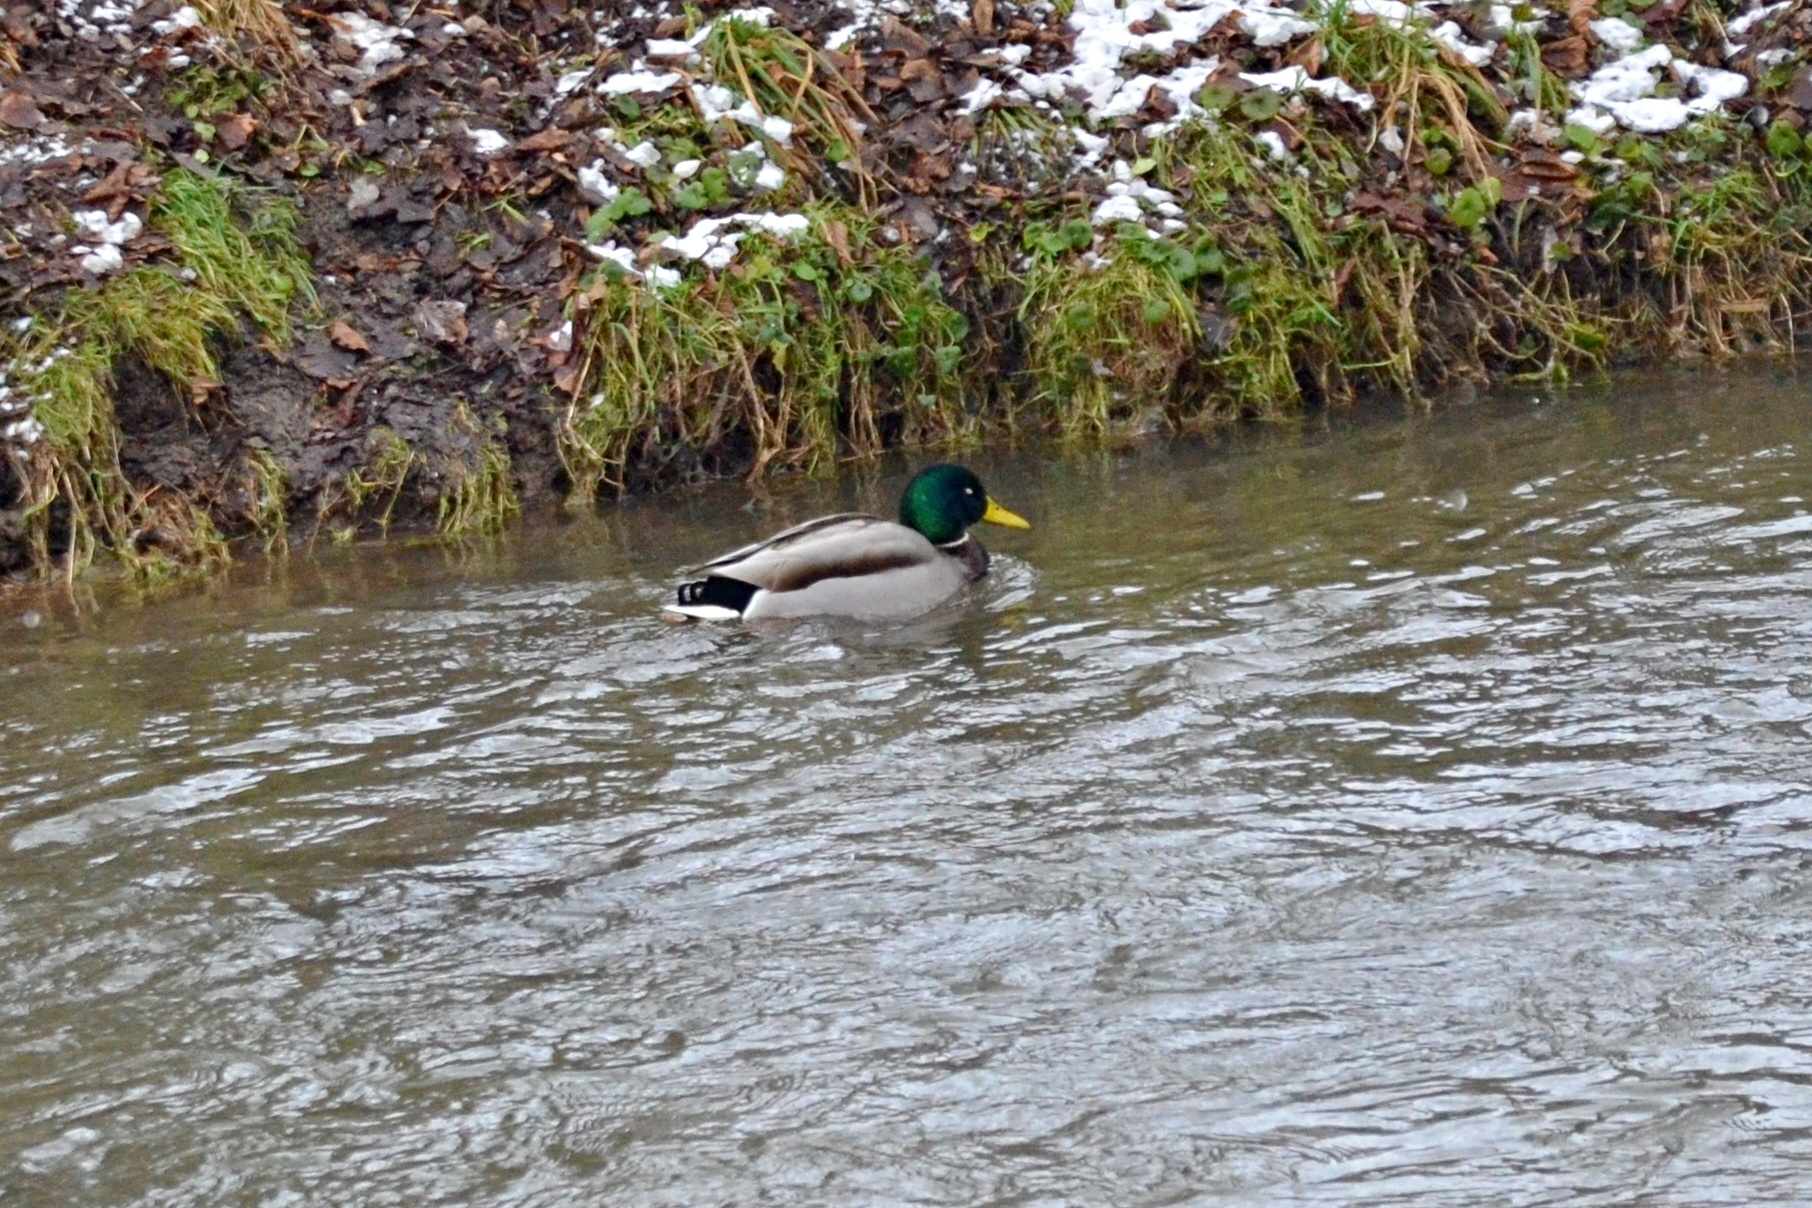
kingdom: Animalia
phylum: Chordata
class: Aves
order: Anseriformes
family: Anatidae
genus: Anas
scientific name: Anas platyrhynchos
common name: Mallard
